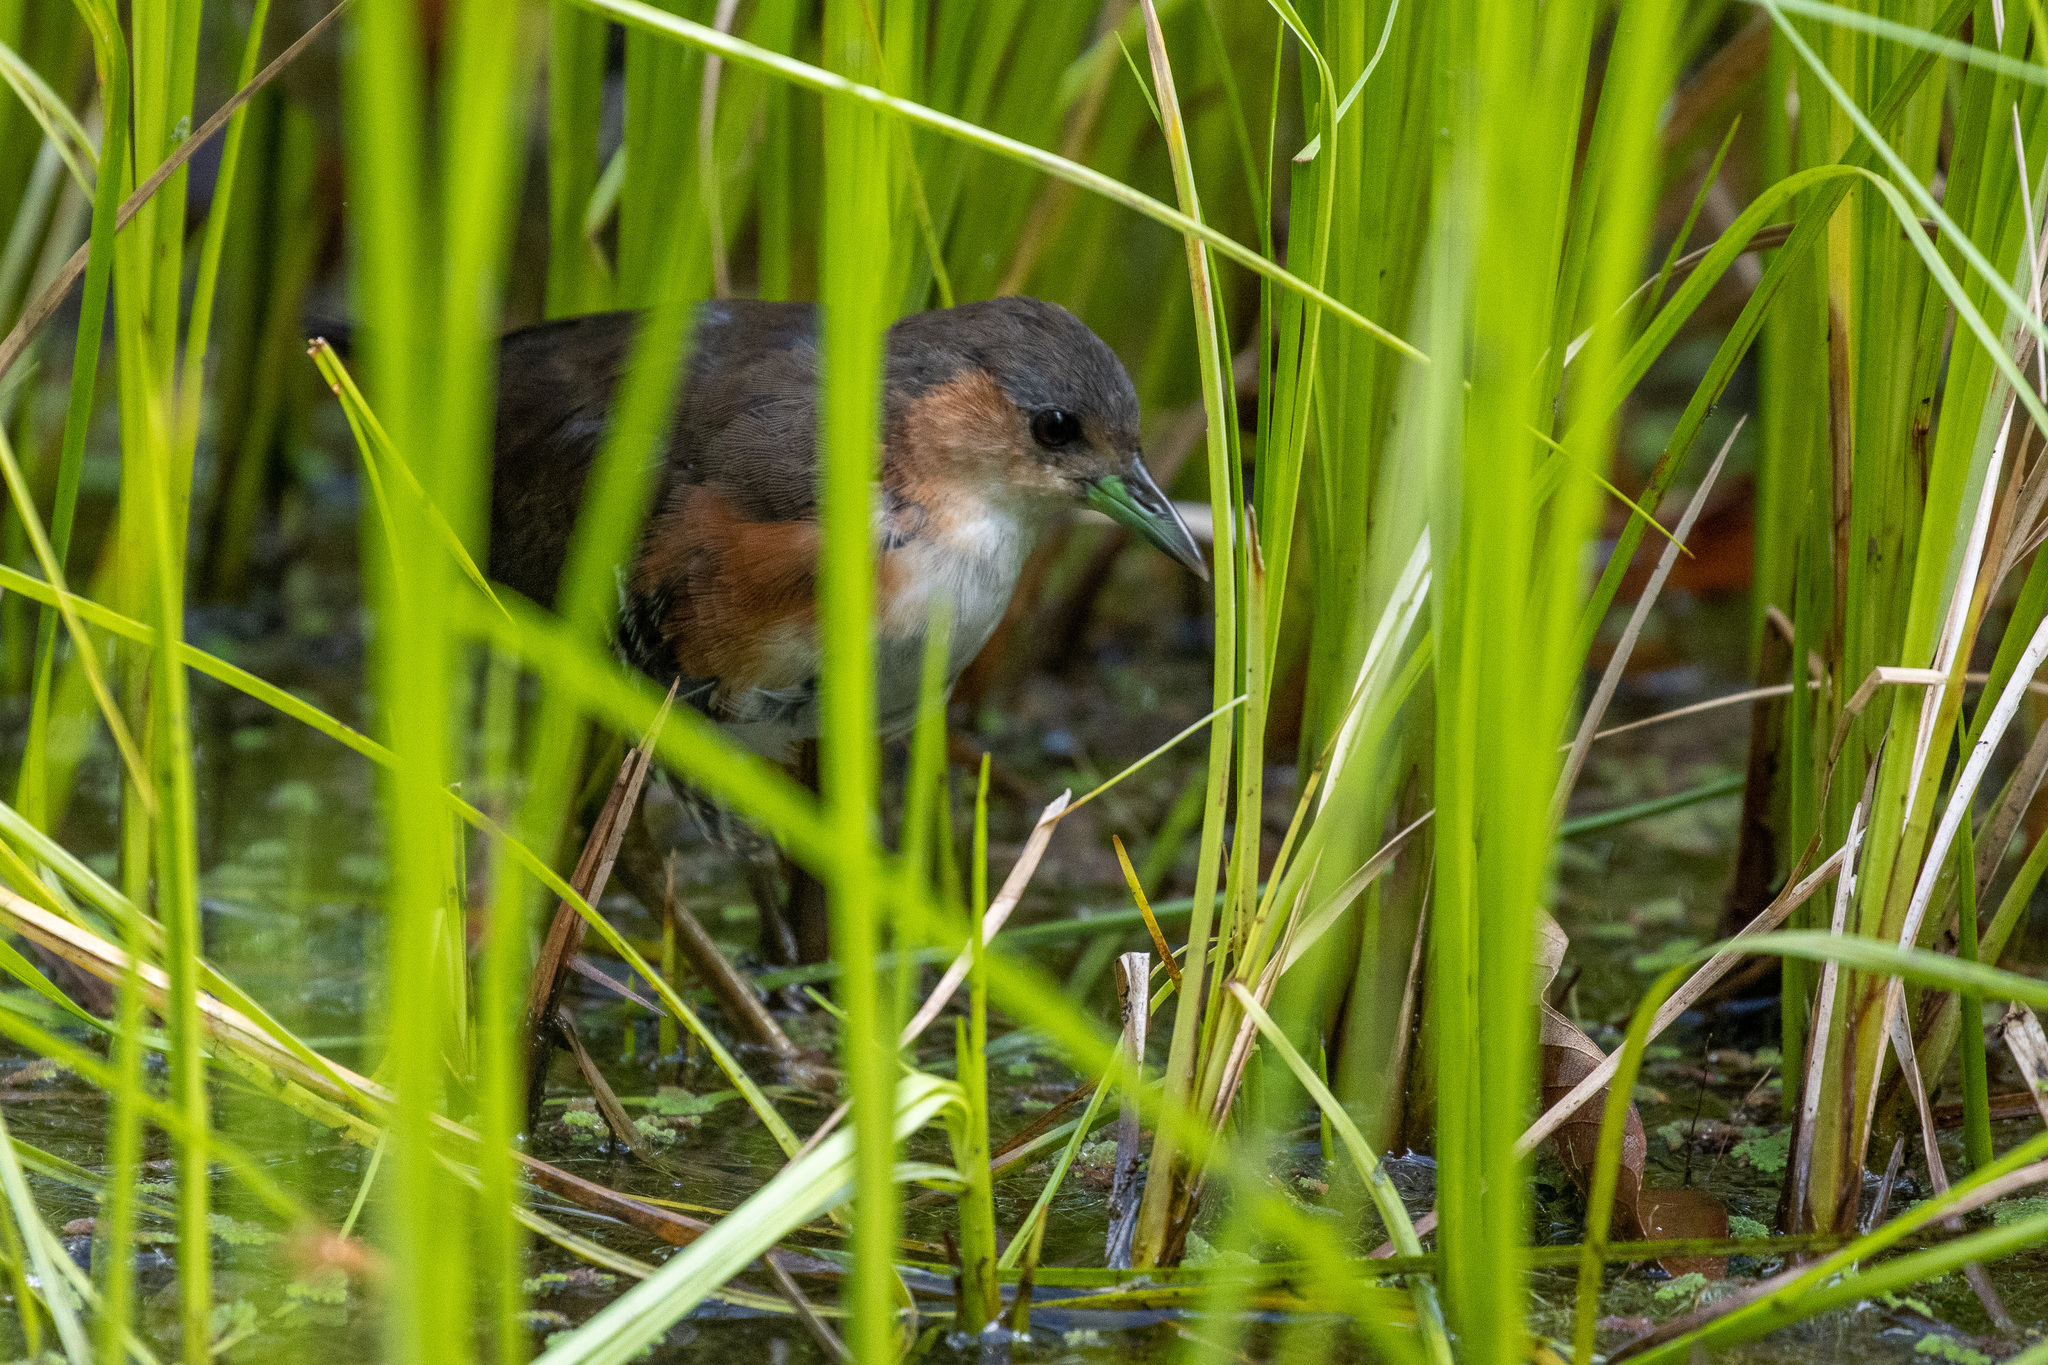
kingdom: Animalia
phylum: Chordata
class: Aves
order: Gruiformes
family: Rallidae
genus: Laterallus
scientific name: Laterallus melanophaius
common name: Rufous-sided crake
